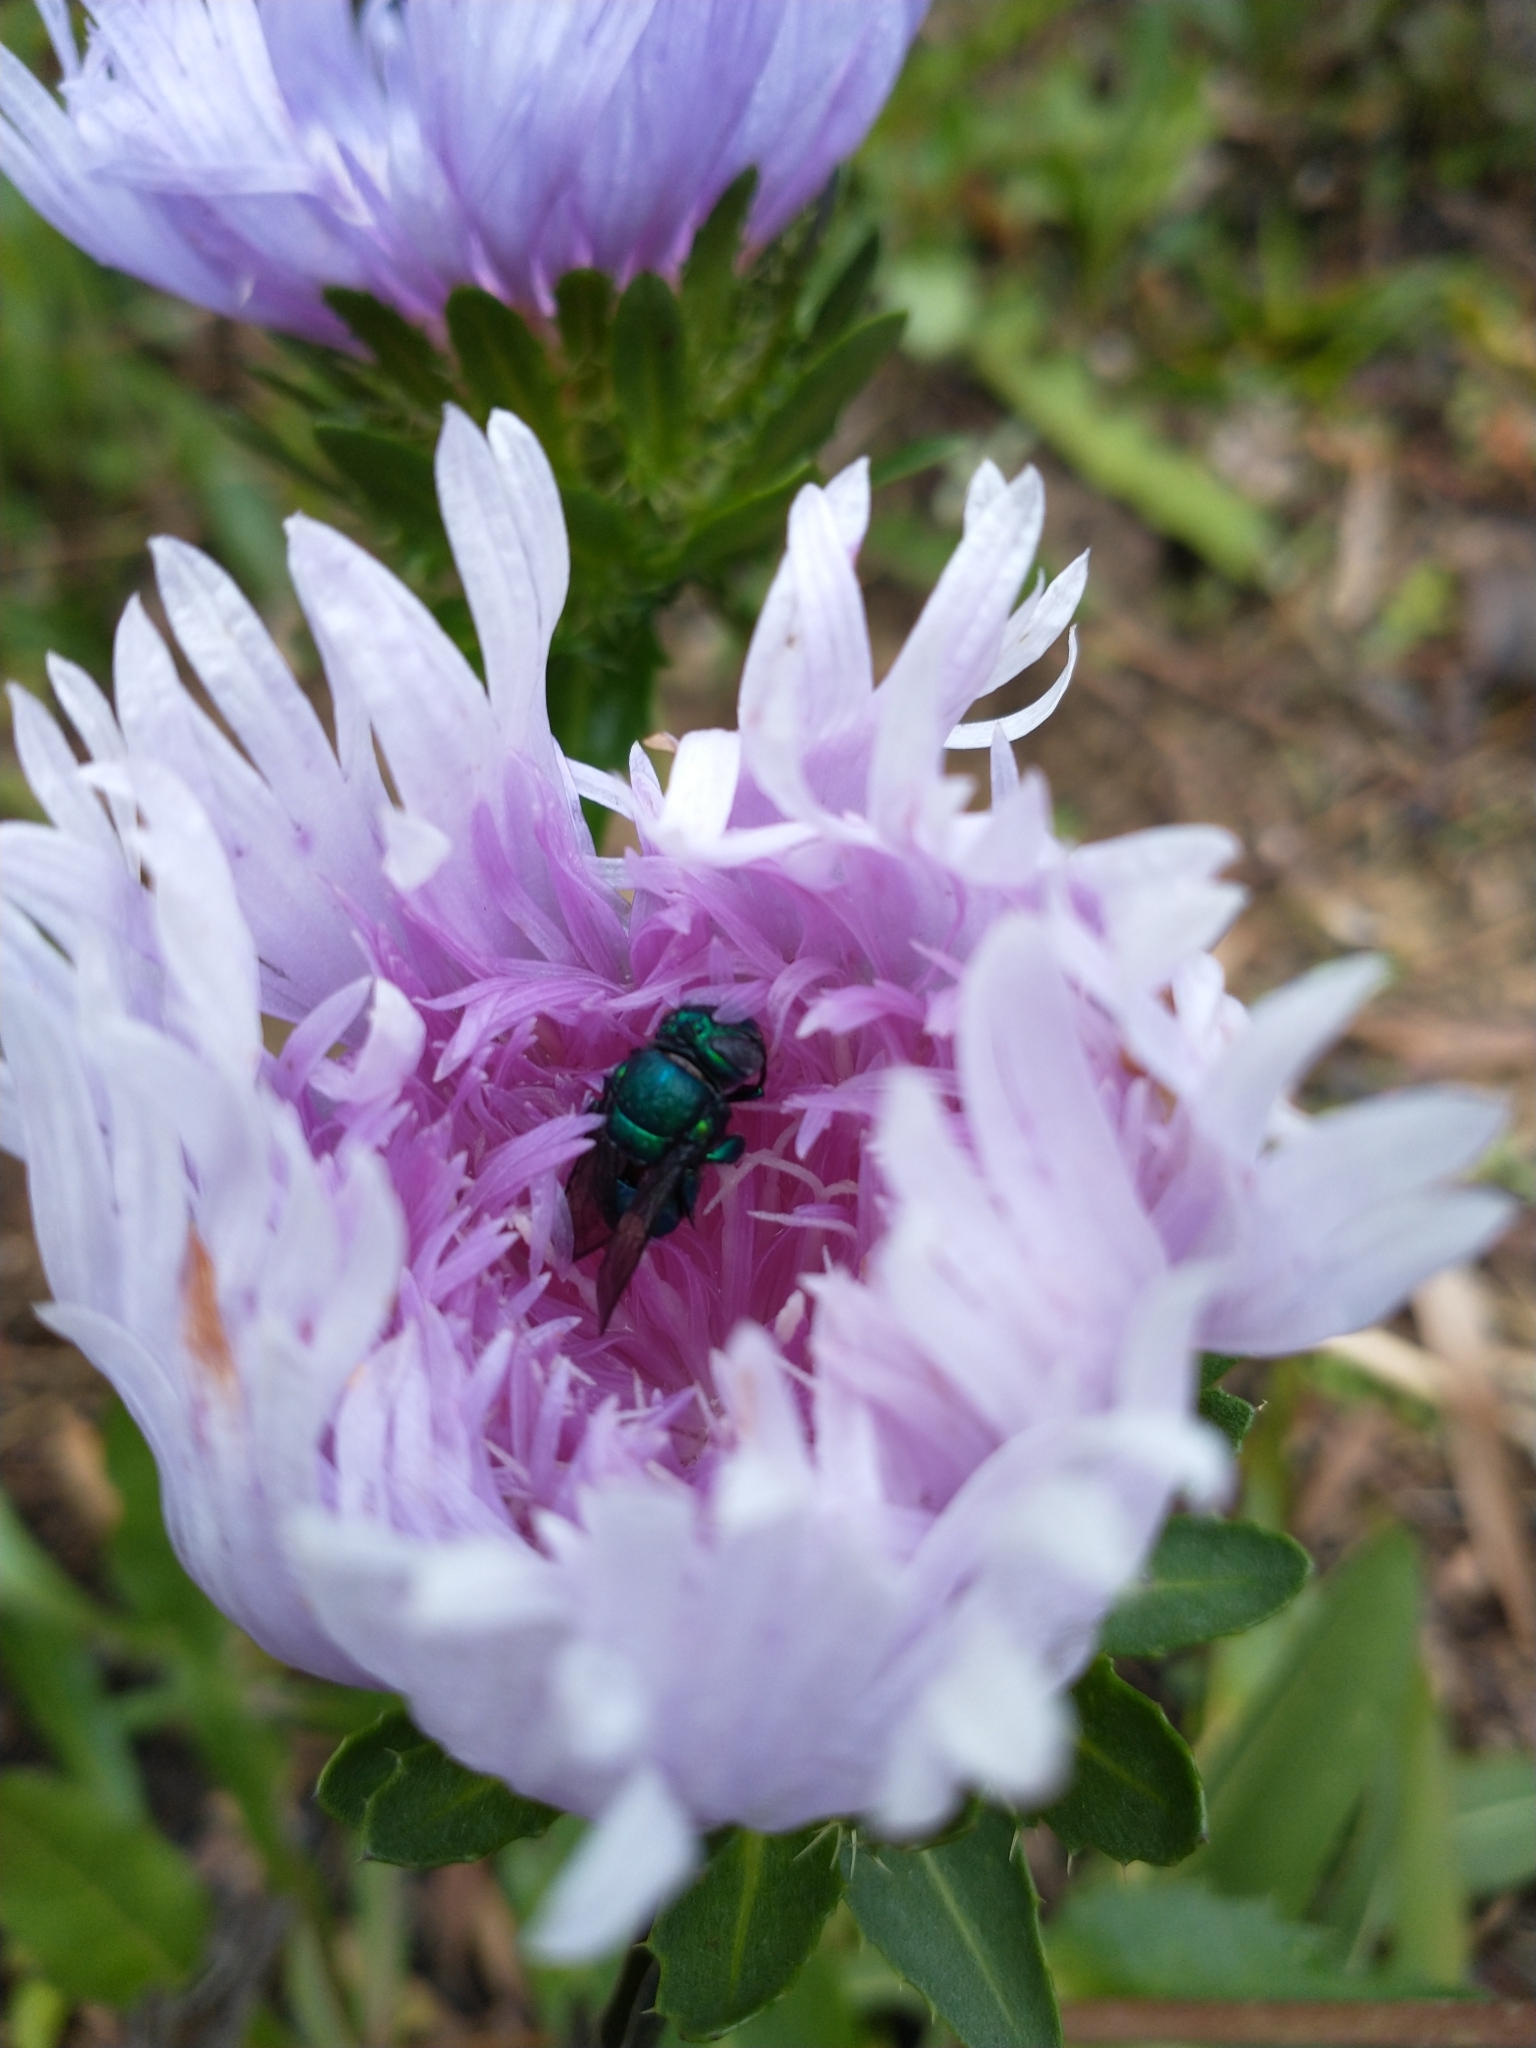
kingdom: Animalia
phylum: Arthropoda
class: Insecta
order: Hymenoptera
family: Apidae
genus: Euglossa
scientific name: Euglossa dilemma
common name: Green orchid bee
